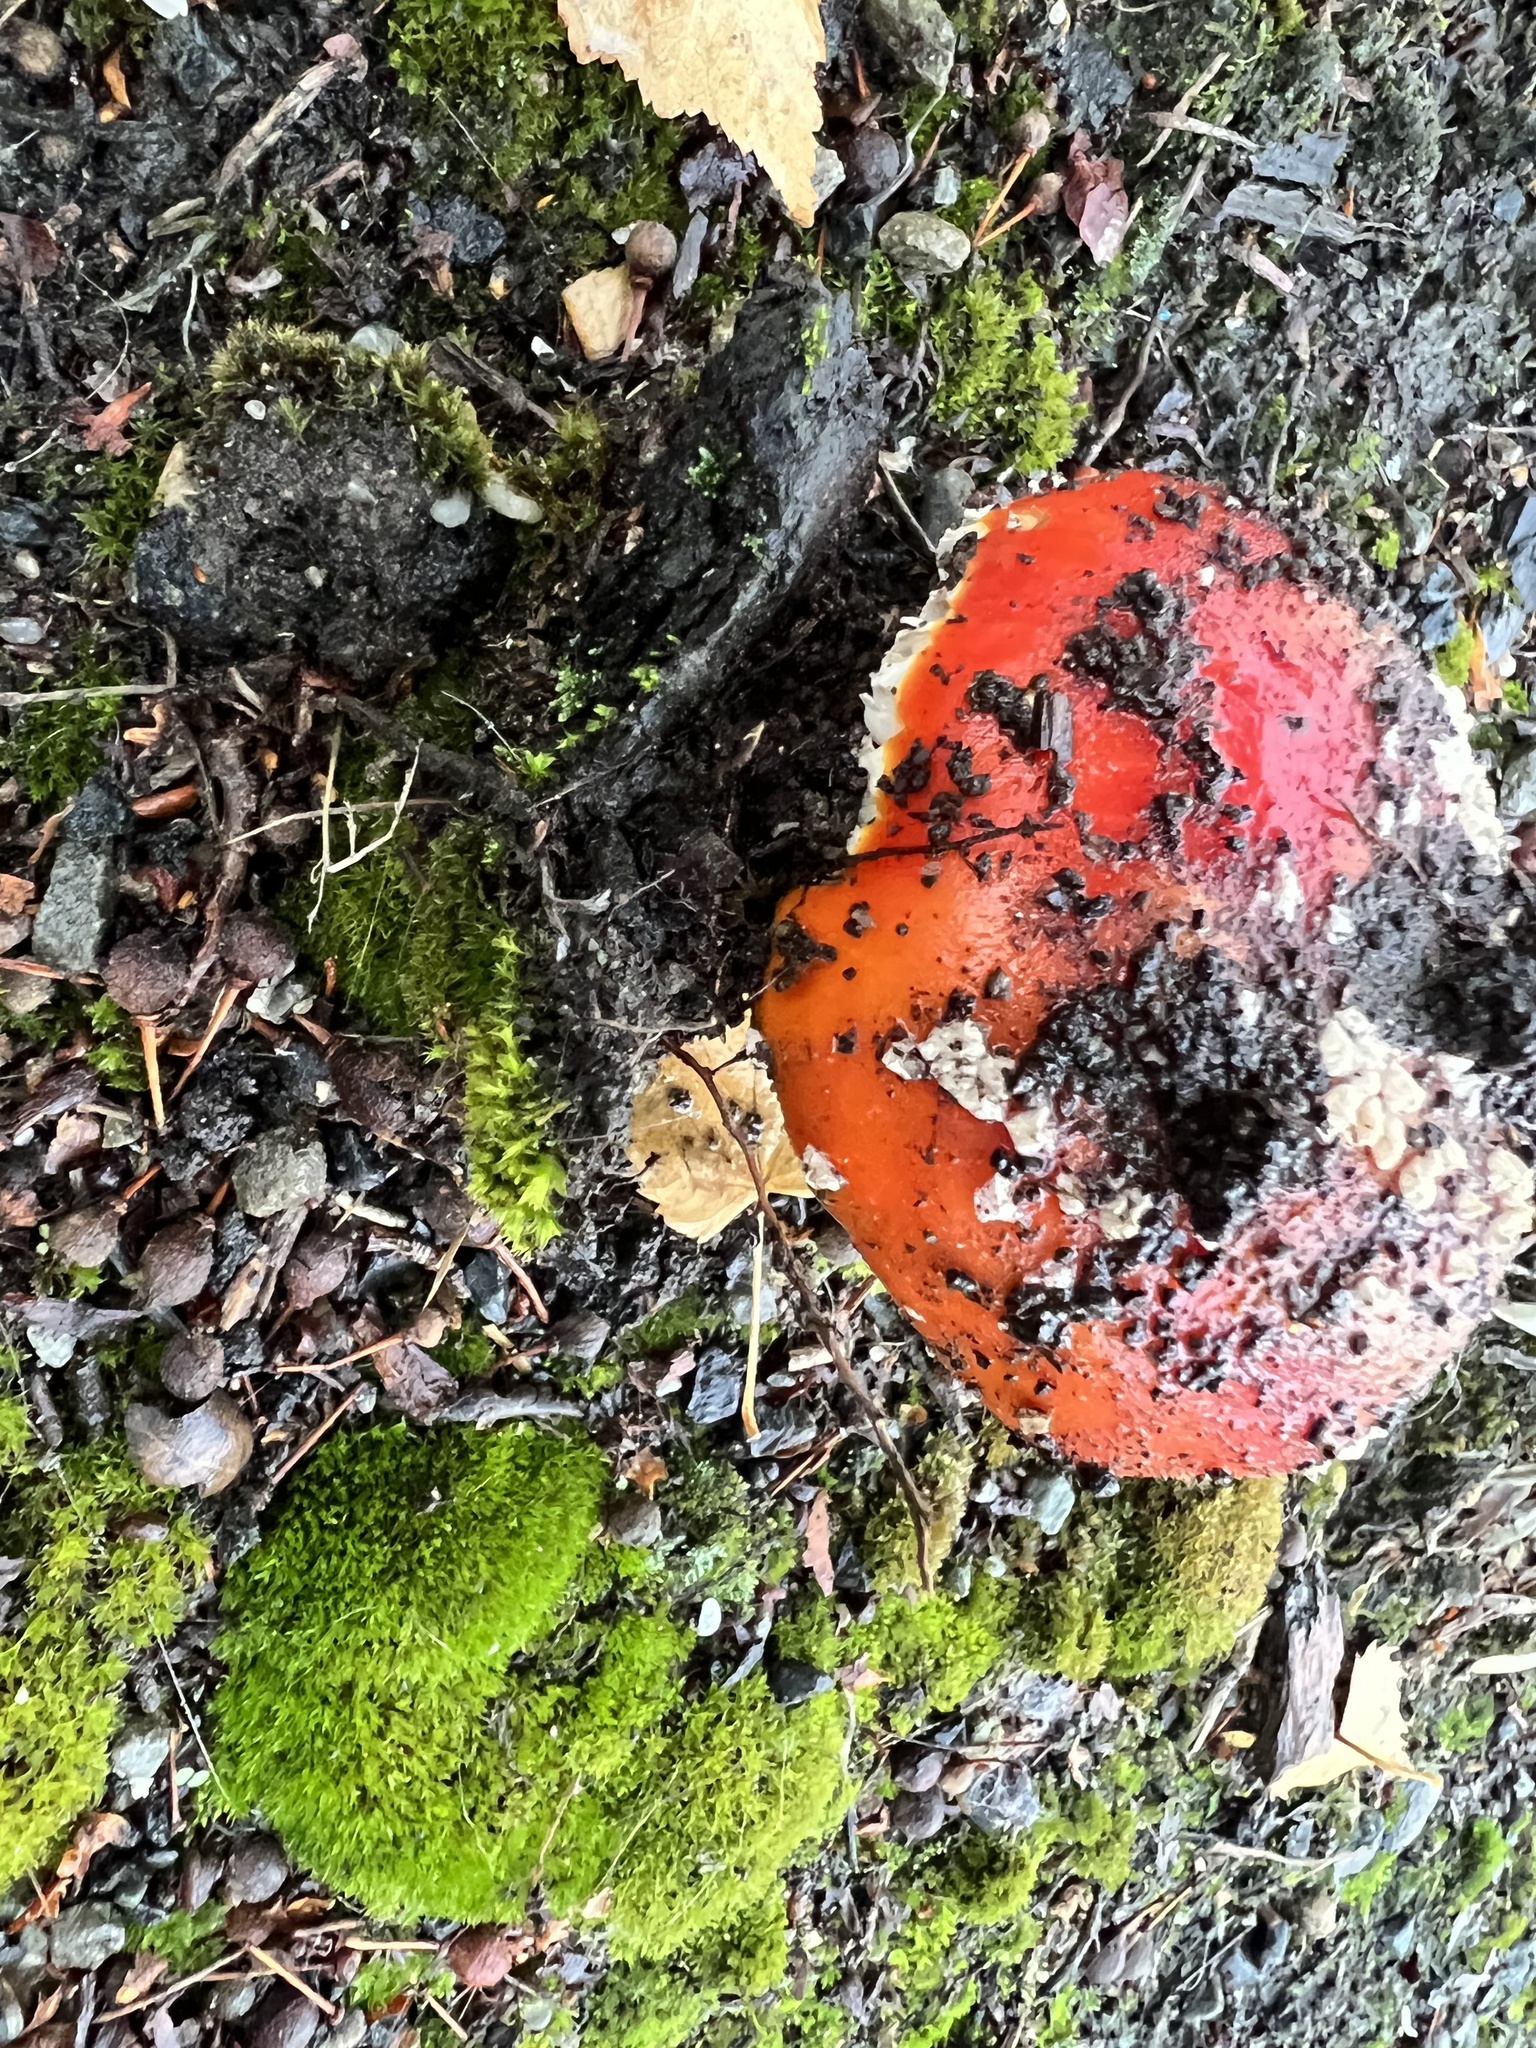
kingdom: Fungi
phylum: Basidiomycota
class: Agaricomycetes
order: Agaricales
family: Amanitaceae
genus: Amanita
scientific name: Amanita muscaria
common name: Fly agaric
